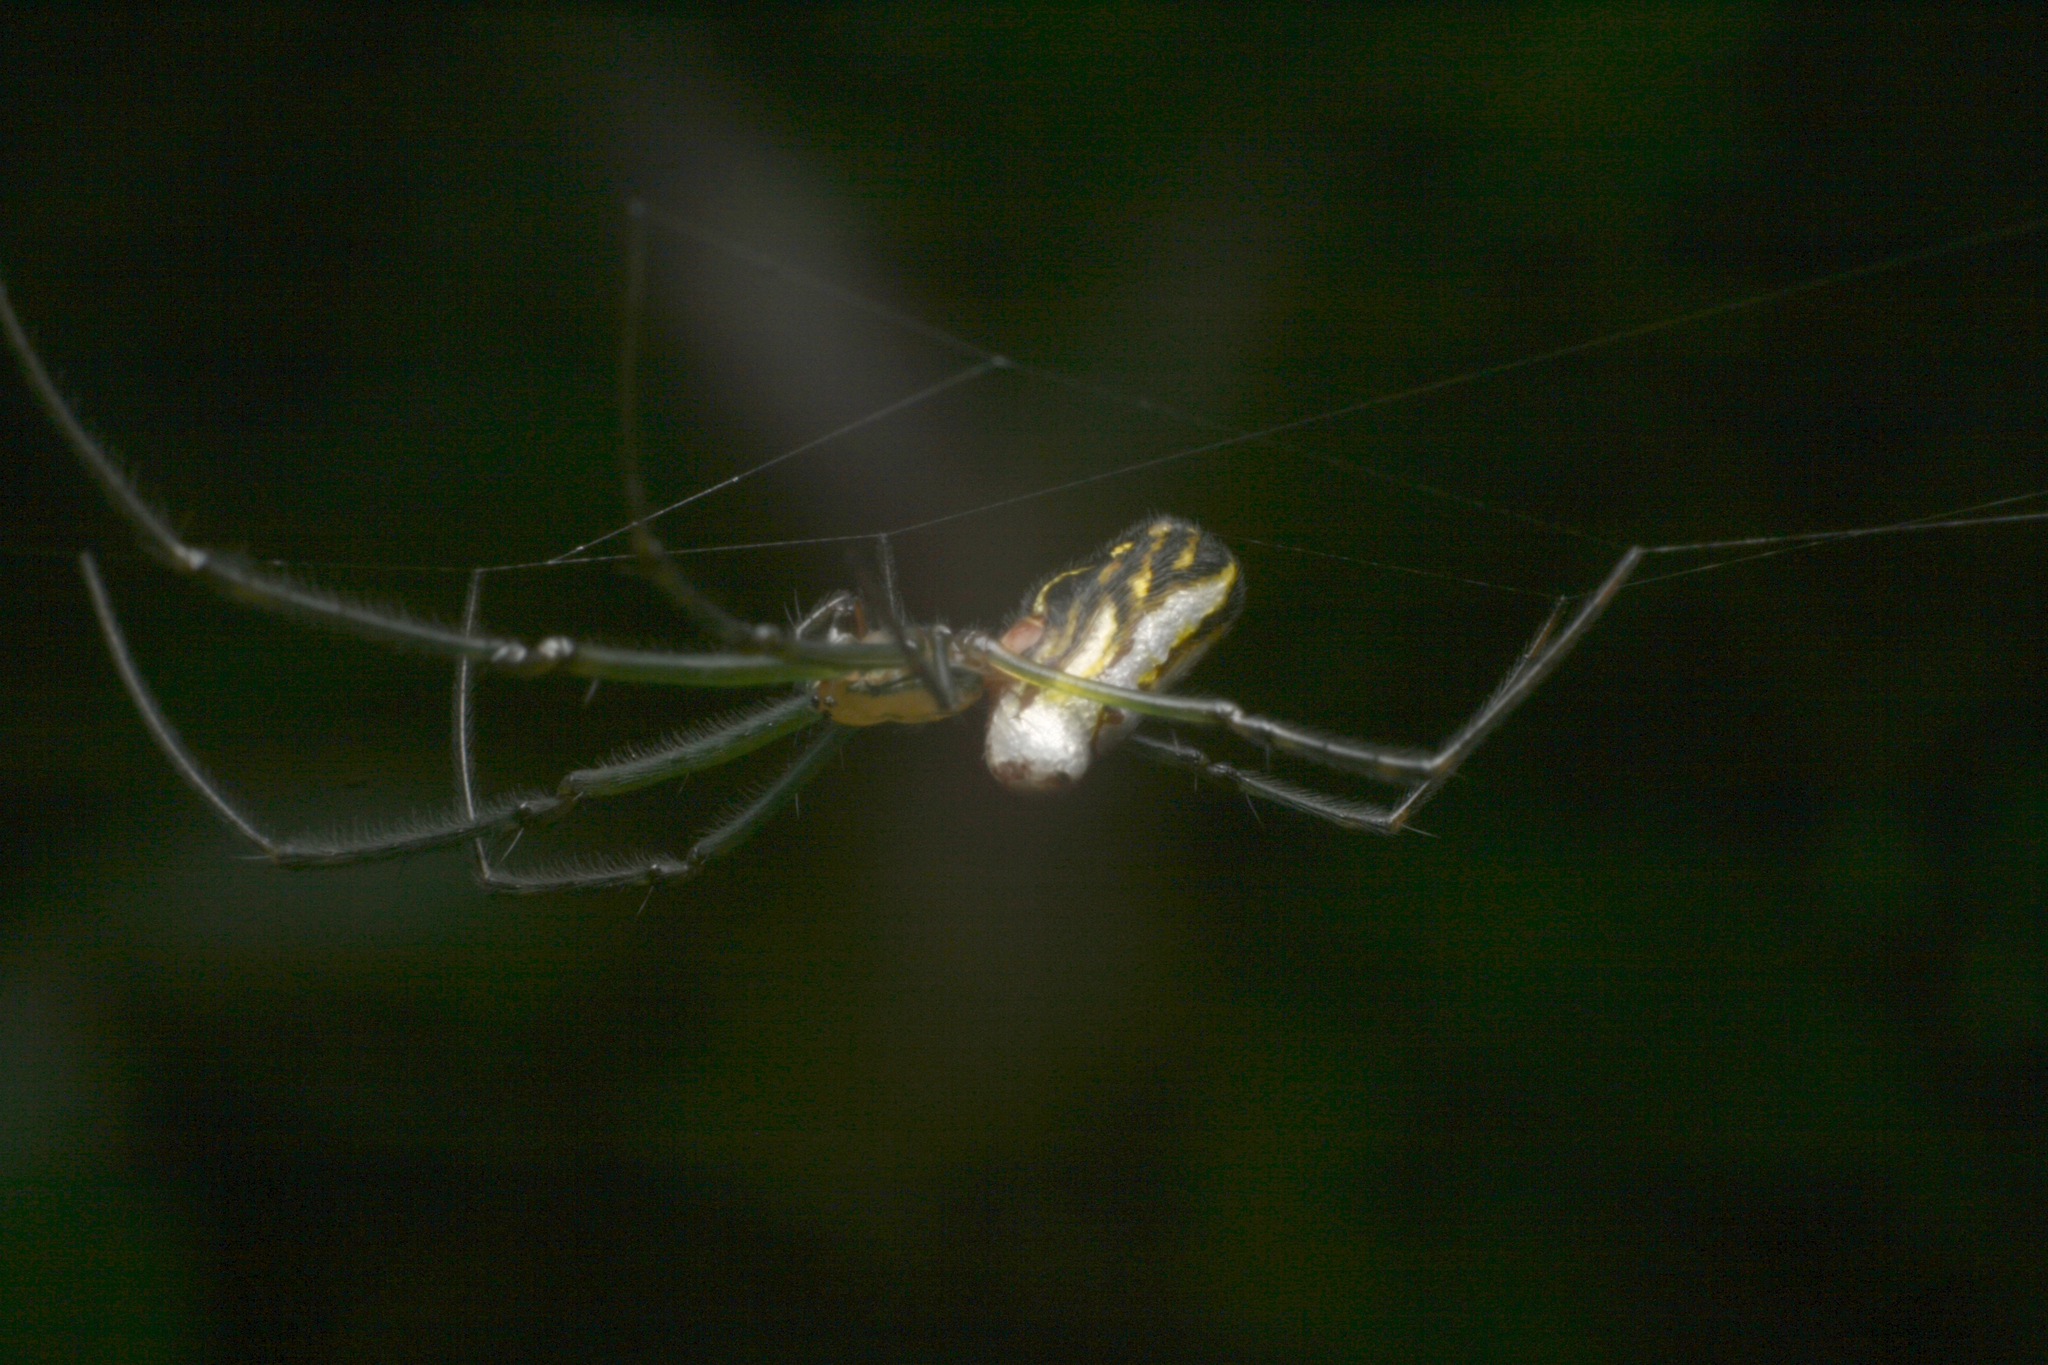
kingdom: Animalia
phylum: Arthropoda
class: Arachnida
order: Araneae
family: Tetragnathidae
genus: Leucauge
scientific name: Leucauge dromedaria
